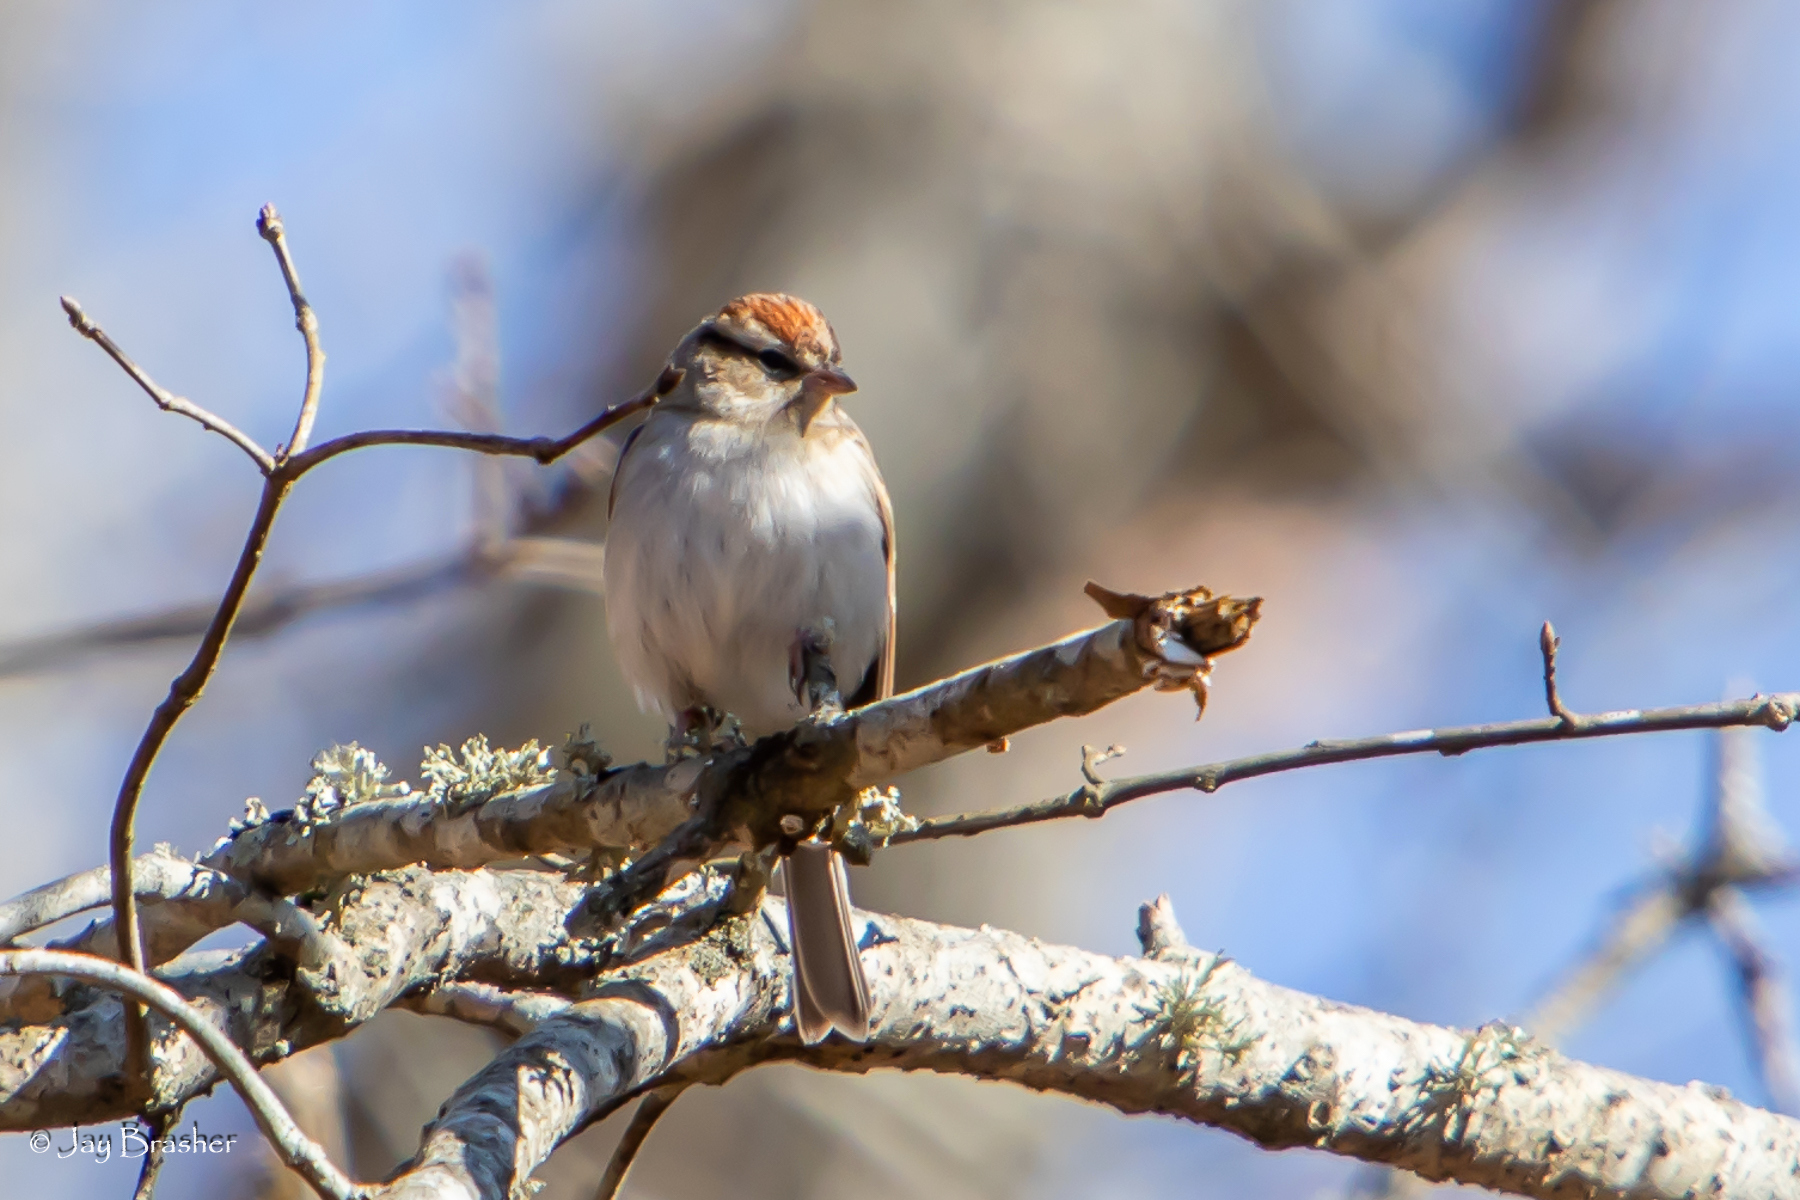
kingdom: Animalia
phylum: Chordata
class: Aves
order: Passeriformes
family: Passerellidae
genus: Spizella
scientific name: Spizella passerina
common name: Chipping sparrow
